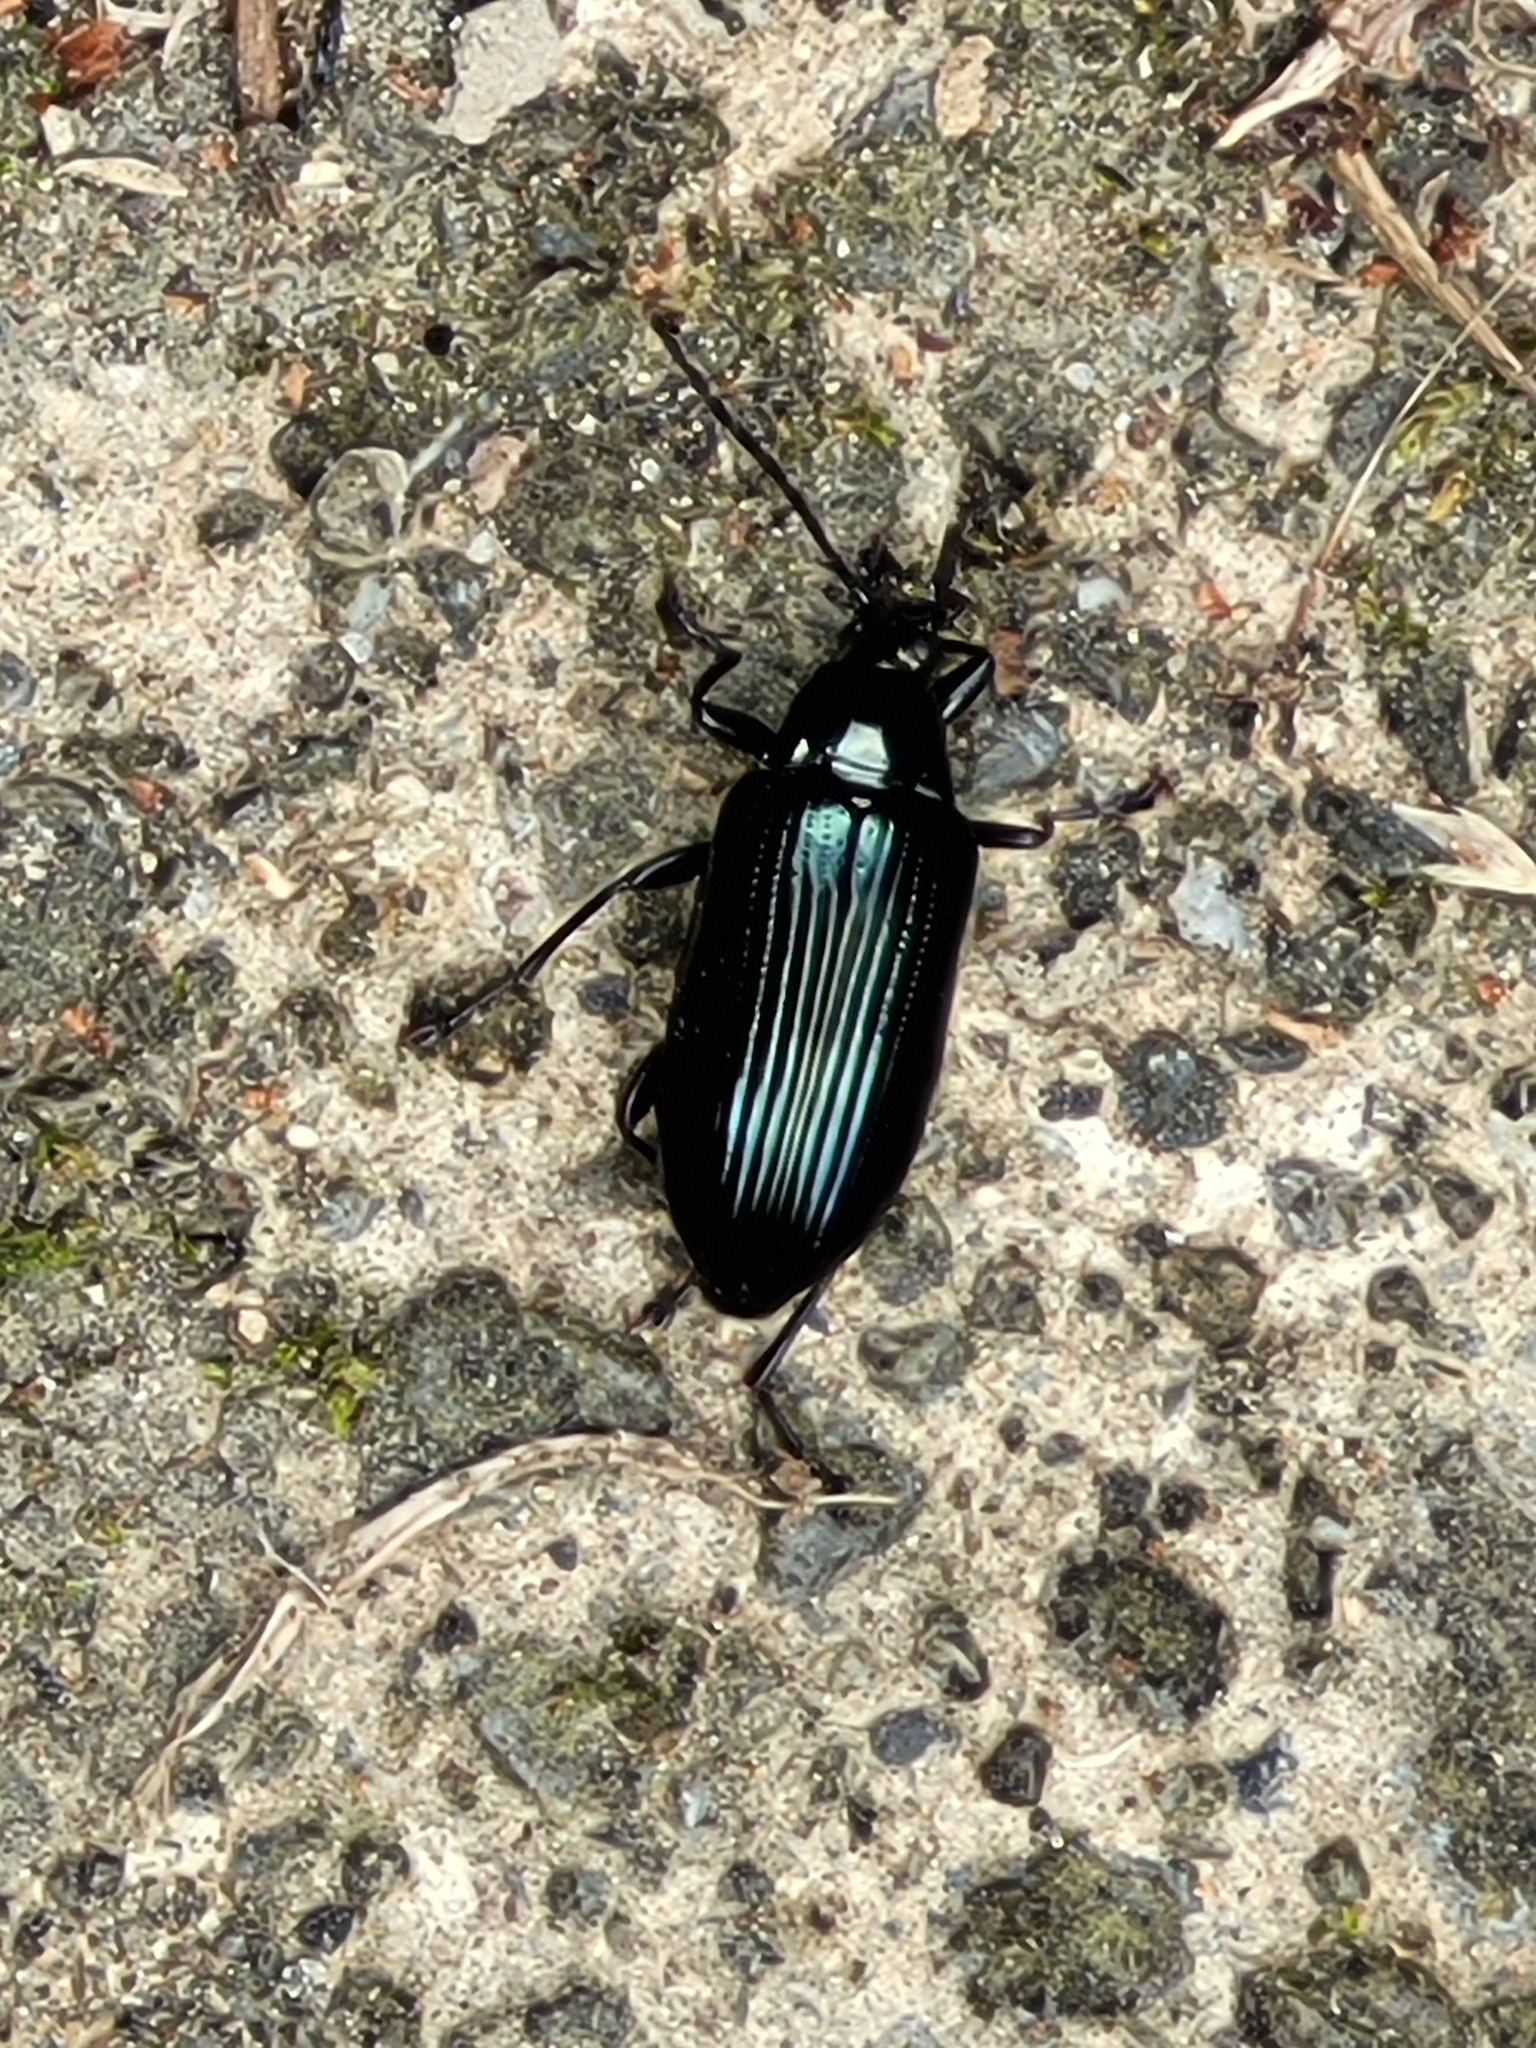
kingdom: Animalia
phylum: Arthropoda
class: Insecta
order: Coleoptera
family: Tenebrionidae
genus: Tanychilus
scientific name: Tanychilus
